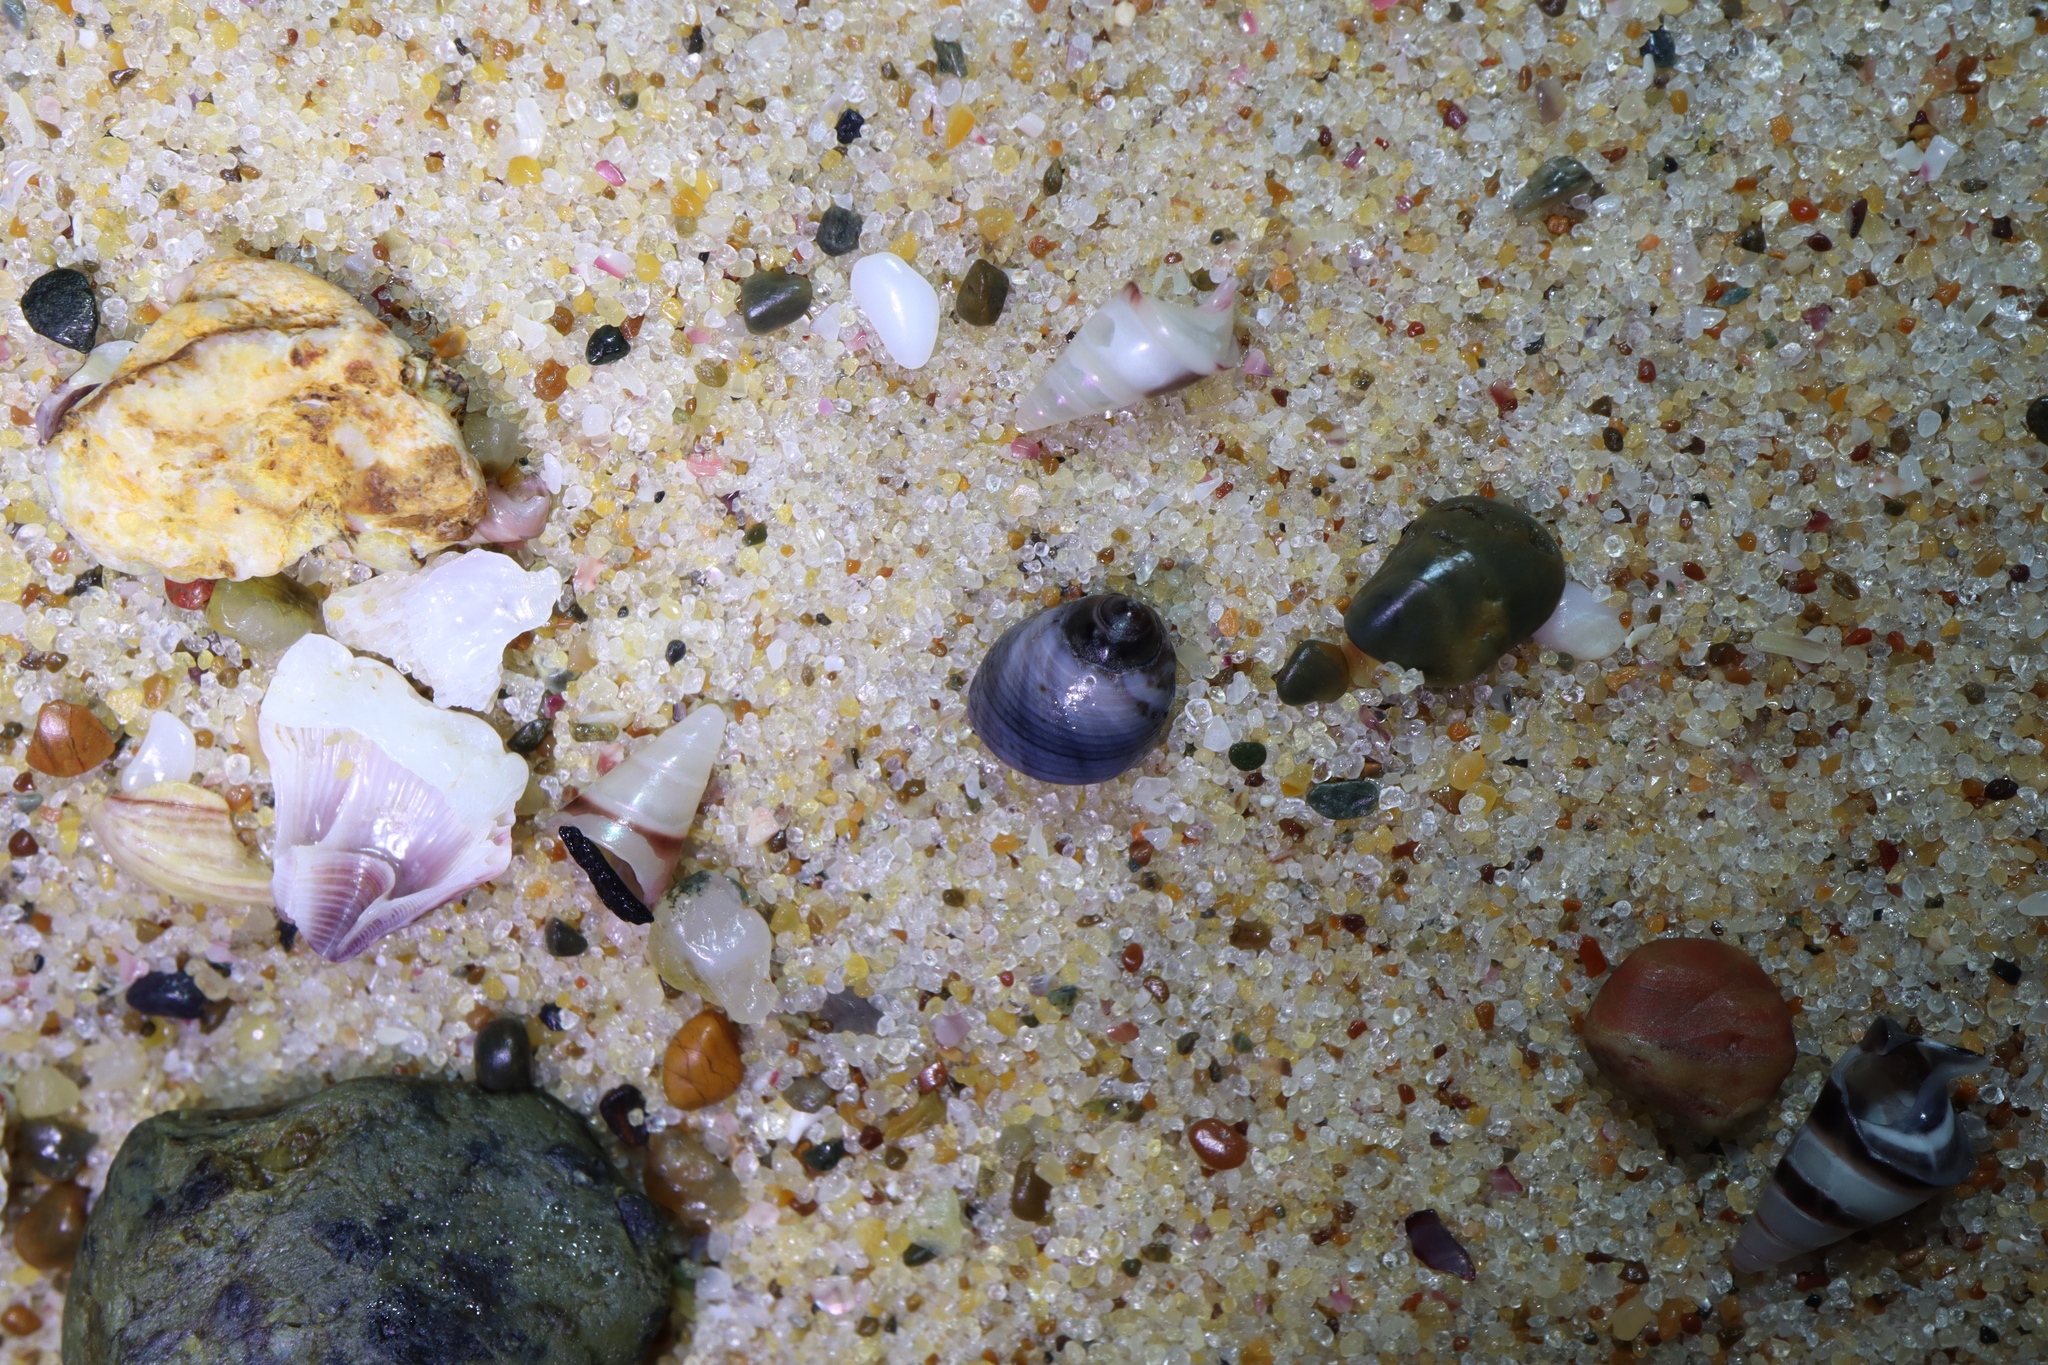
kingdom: Animalia
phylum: Mollusca
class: Gastropoda
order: Littorinimorpha
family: Littorinidae
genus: Austrolittorina
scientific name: Austrolittorina unifasciata
